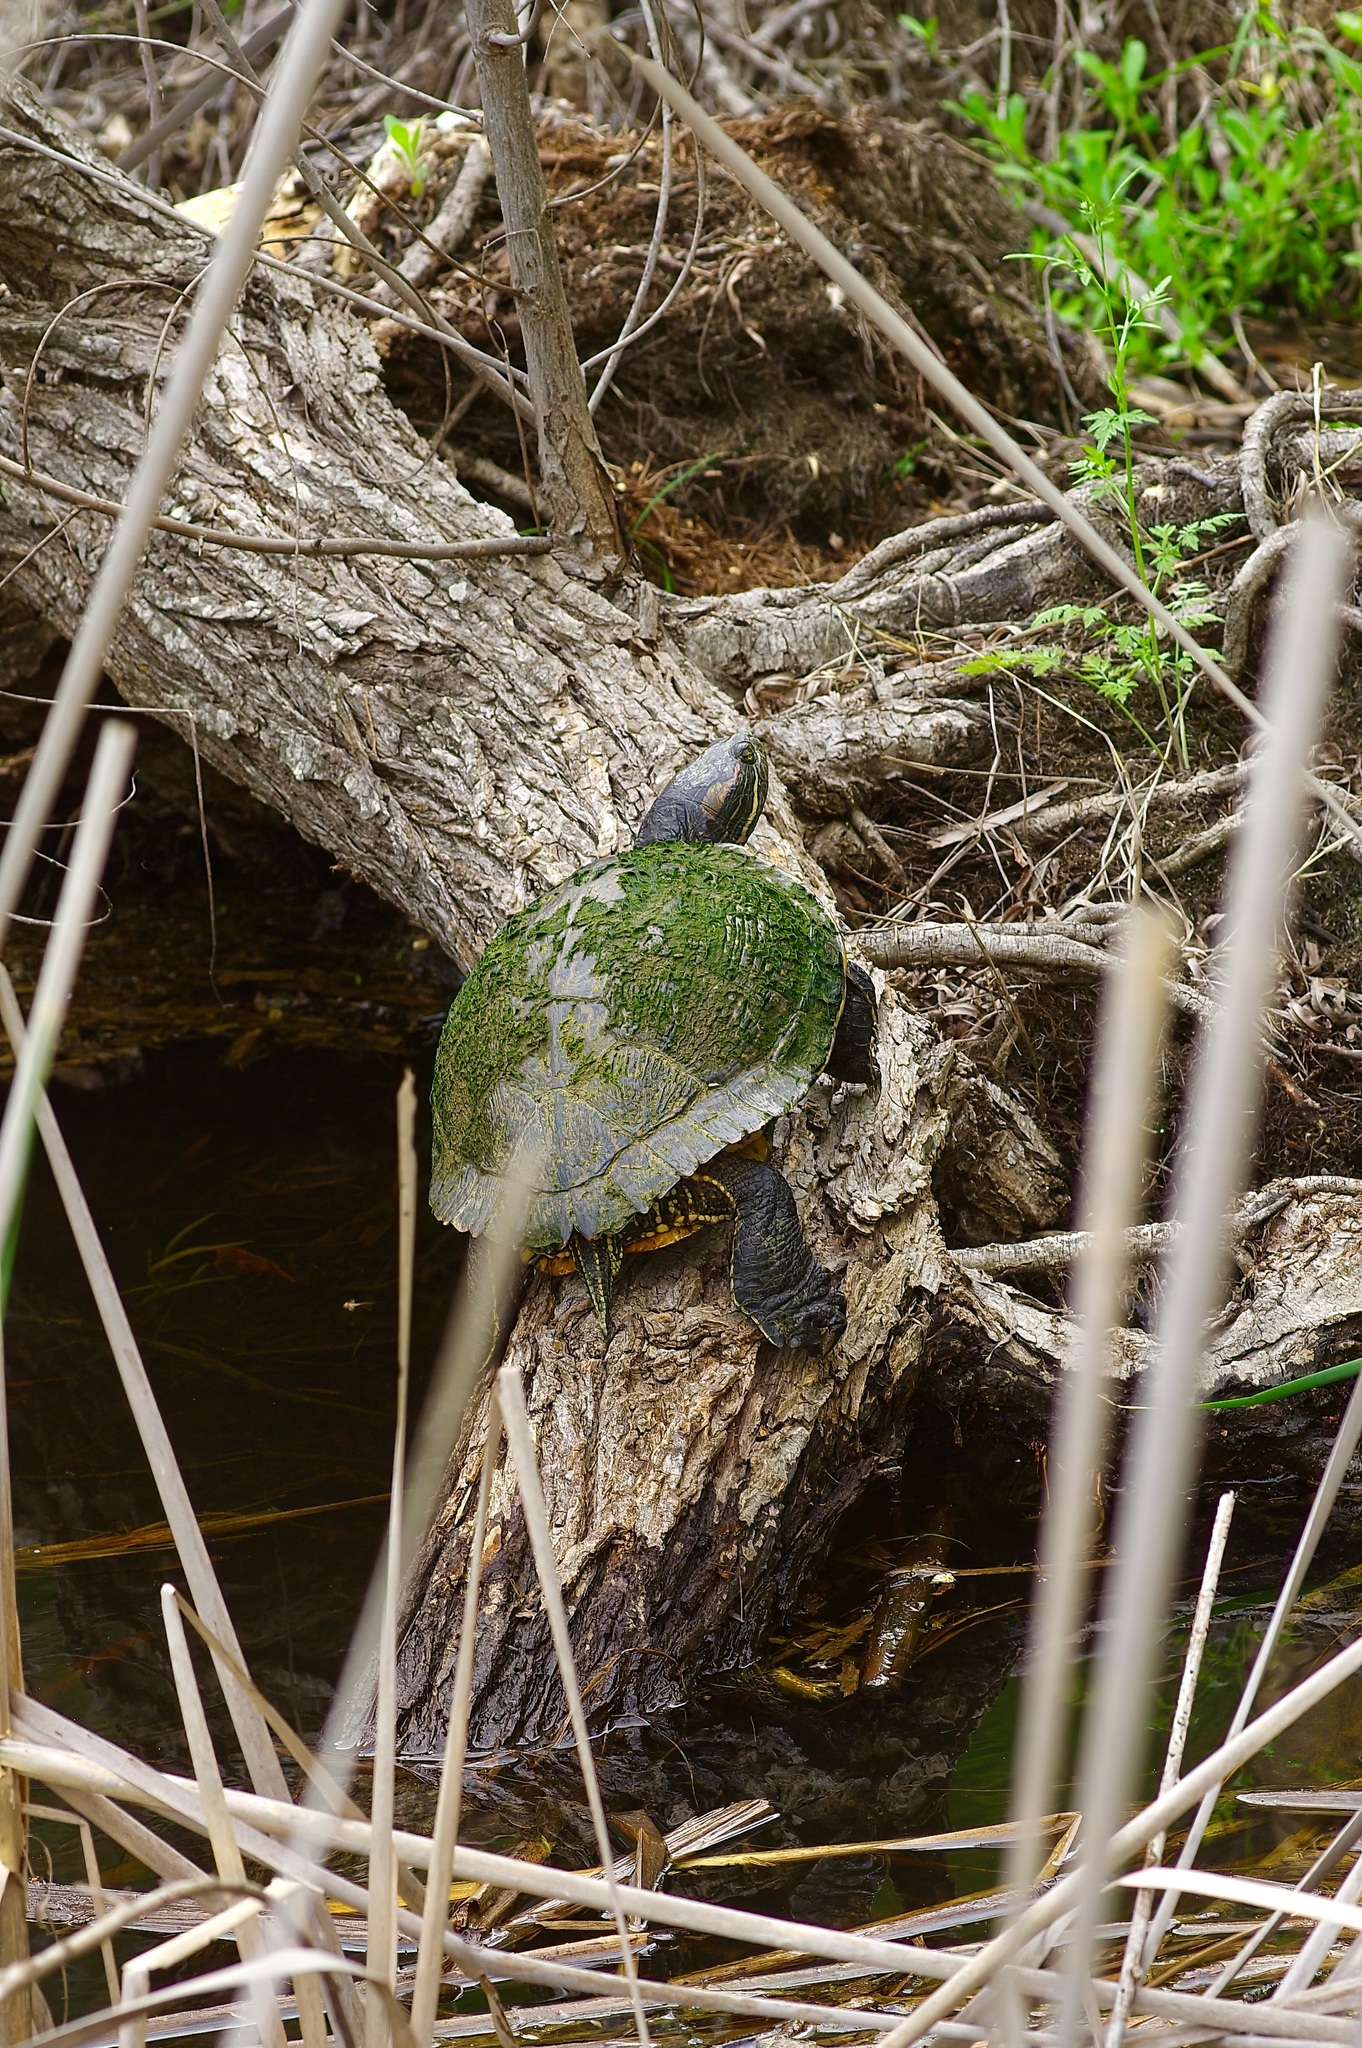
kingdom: Animalia
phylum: Chordata
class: Testudines
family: Emydidae
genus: Trachemys
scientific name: Trachemys scripta
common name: Slider
